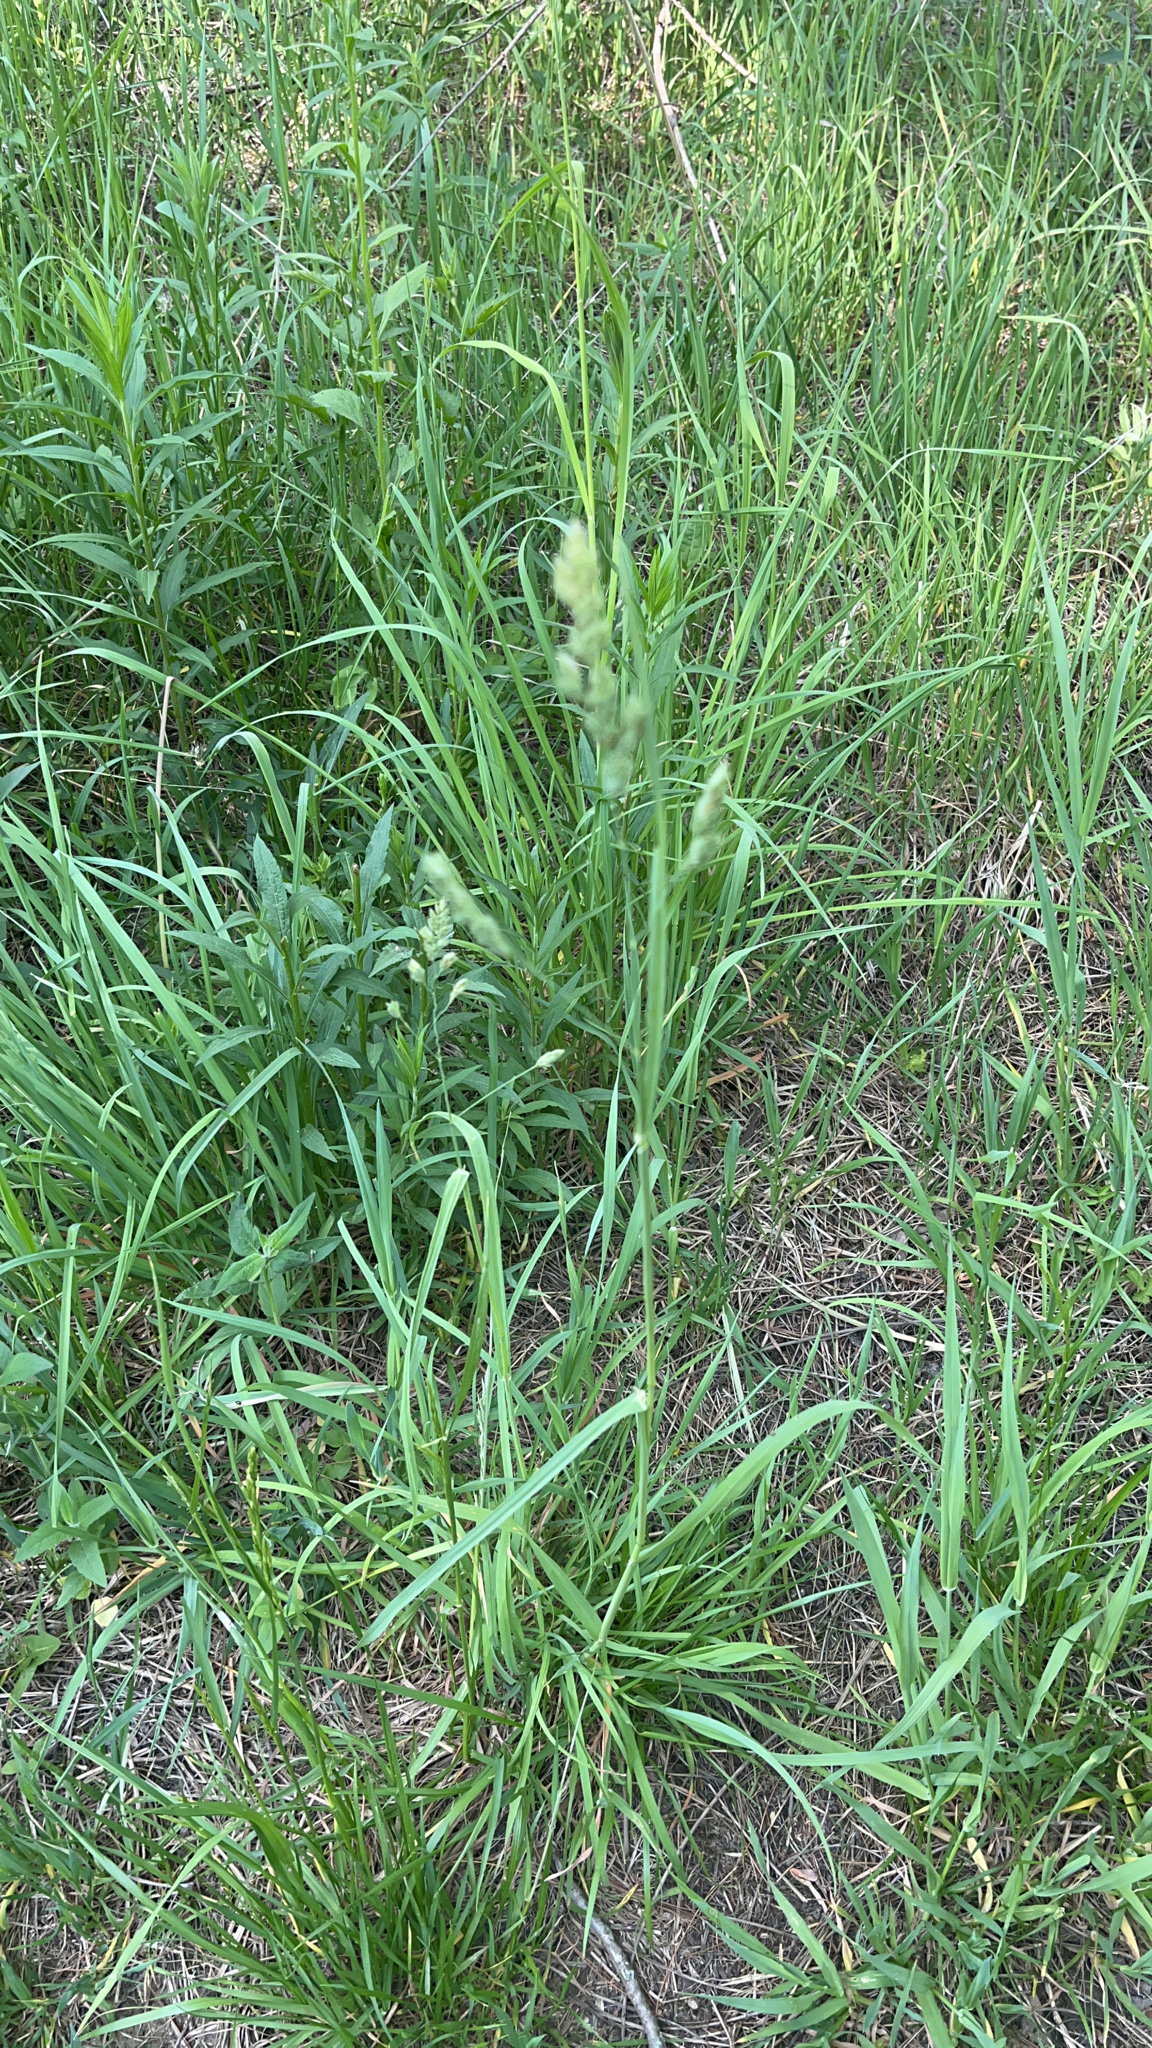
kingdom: Plantae
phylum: Tracheophyta
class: Liliopsida
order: Poales
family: Poaceae
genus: Dactylis
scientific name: Dactylis glomerata
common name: Orchardgrass
